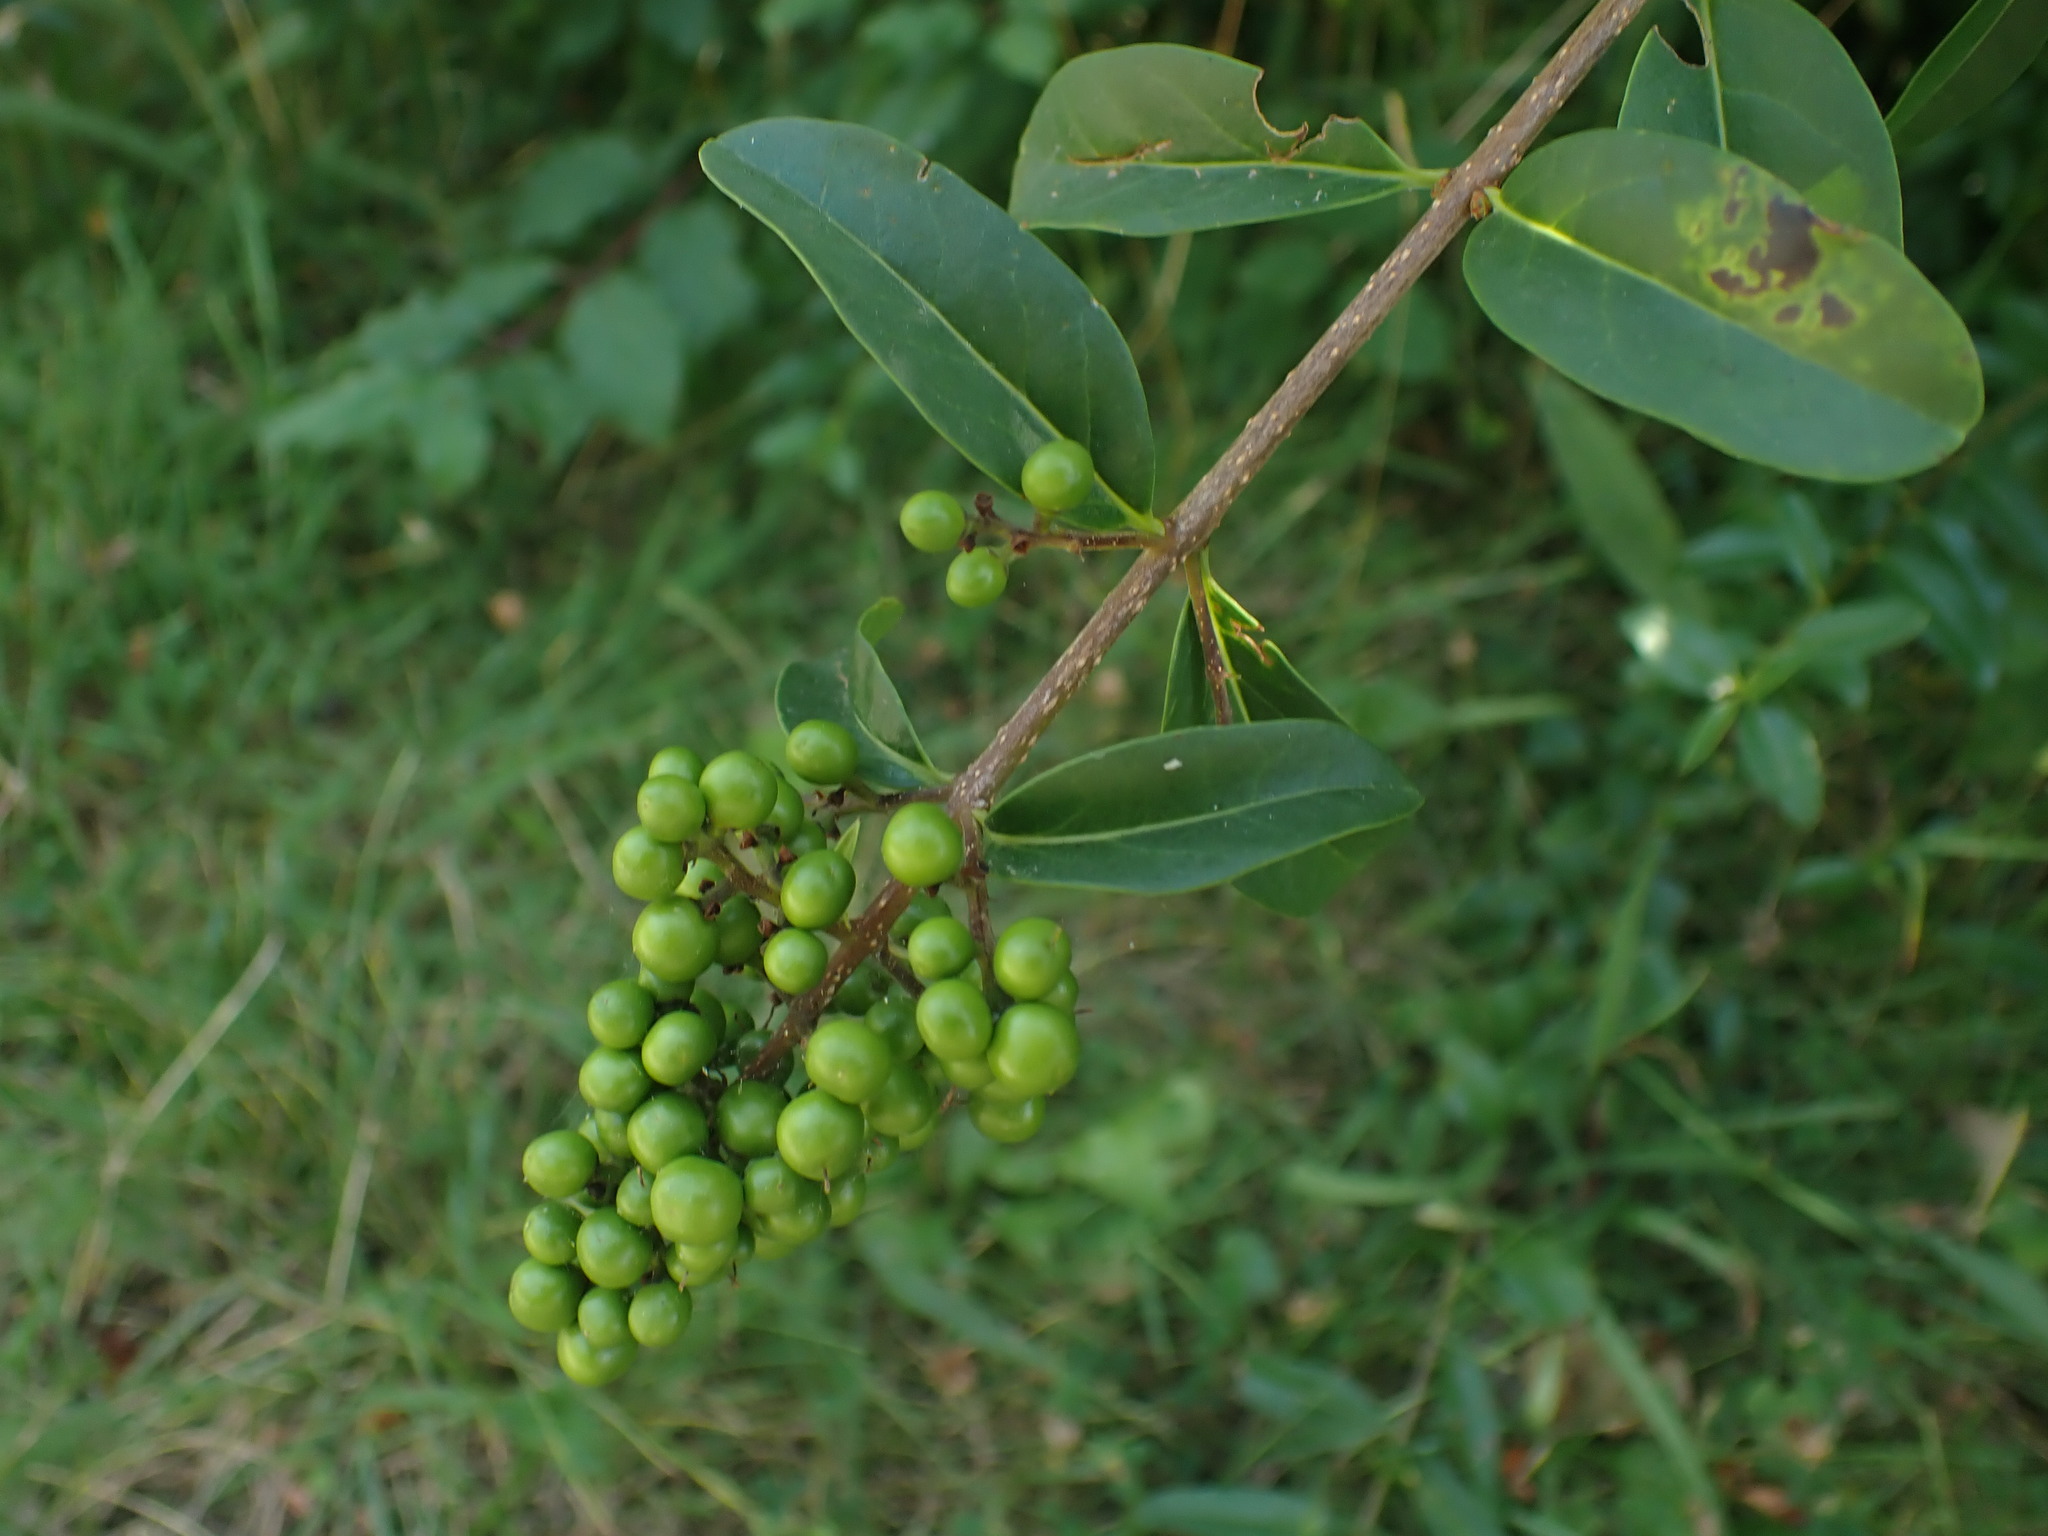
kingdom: Plantae
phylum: Tracheophyta
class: Magnoliopsida
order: Lamiales
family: Oleaceae
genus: Ligustrum
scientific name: Ligustrum vulgare
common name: Wild privet
